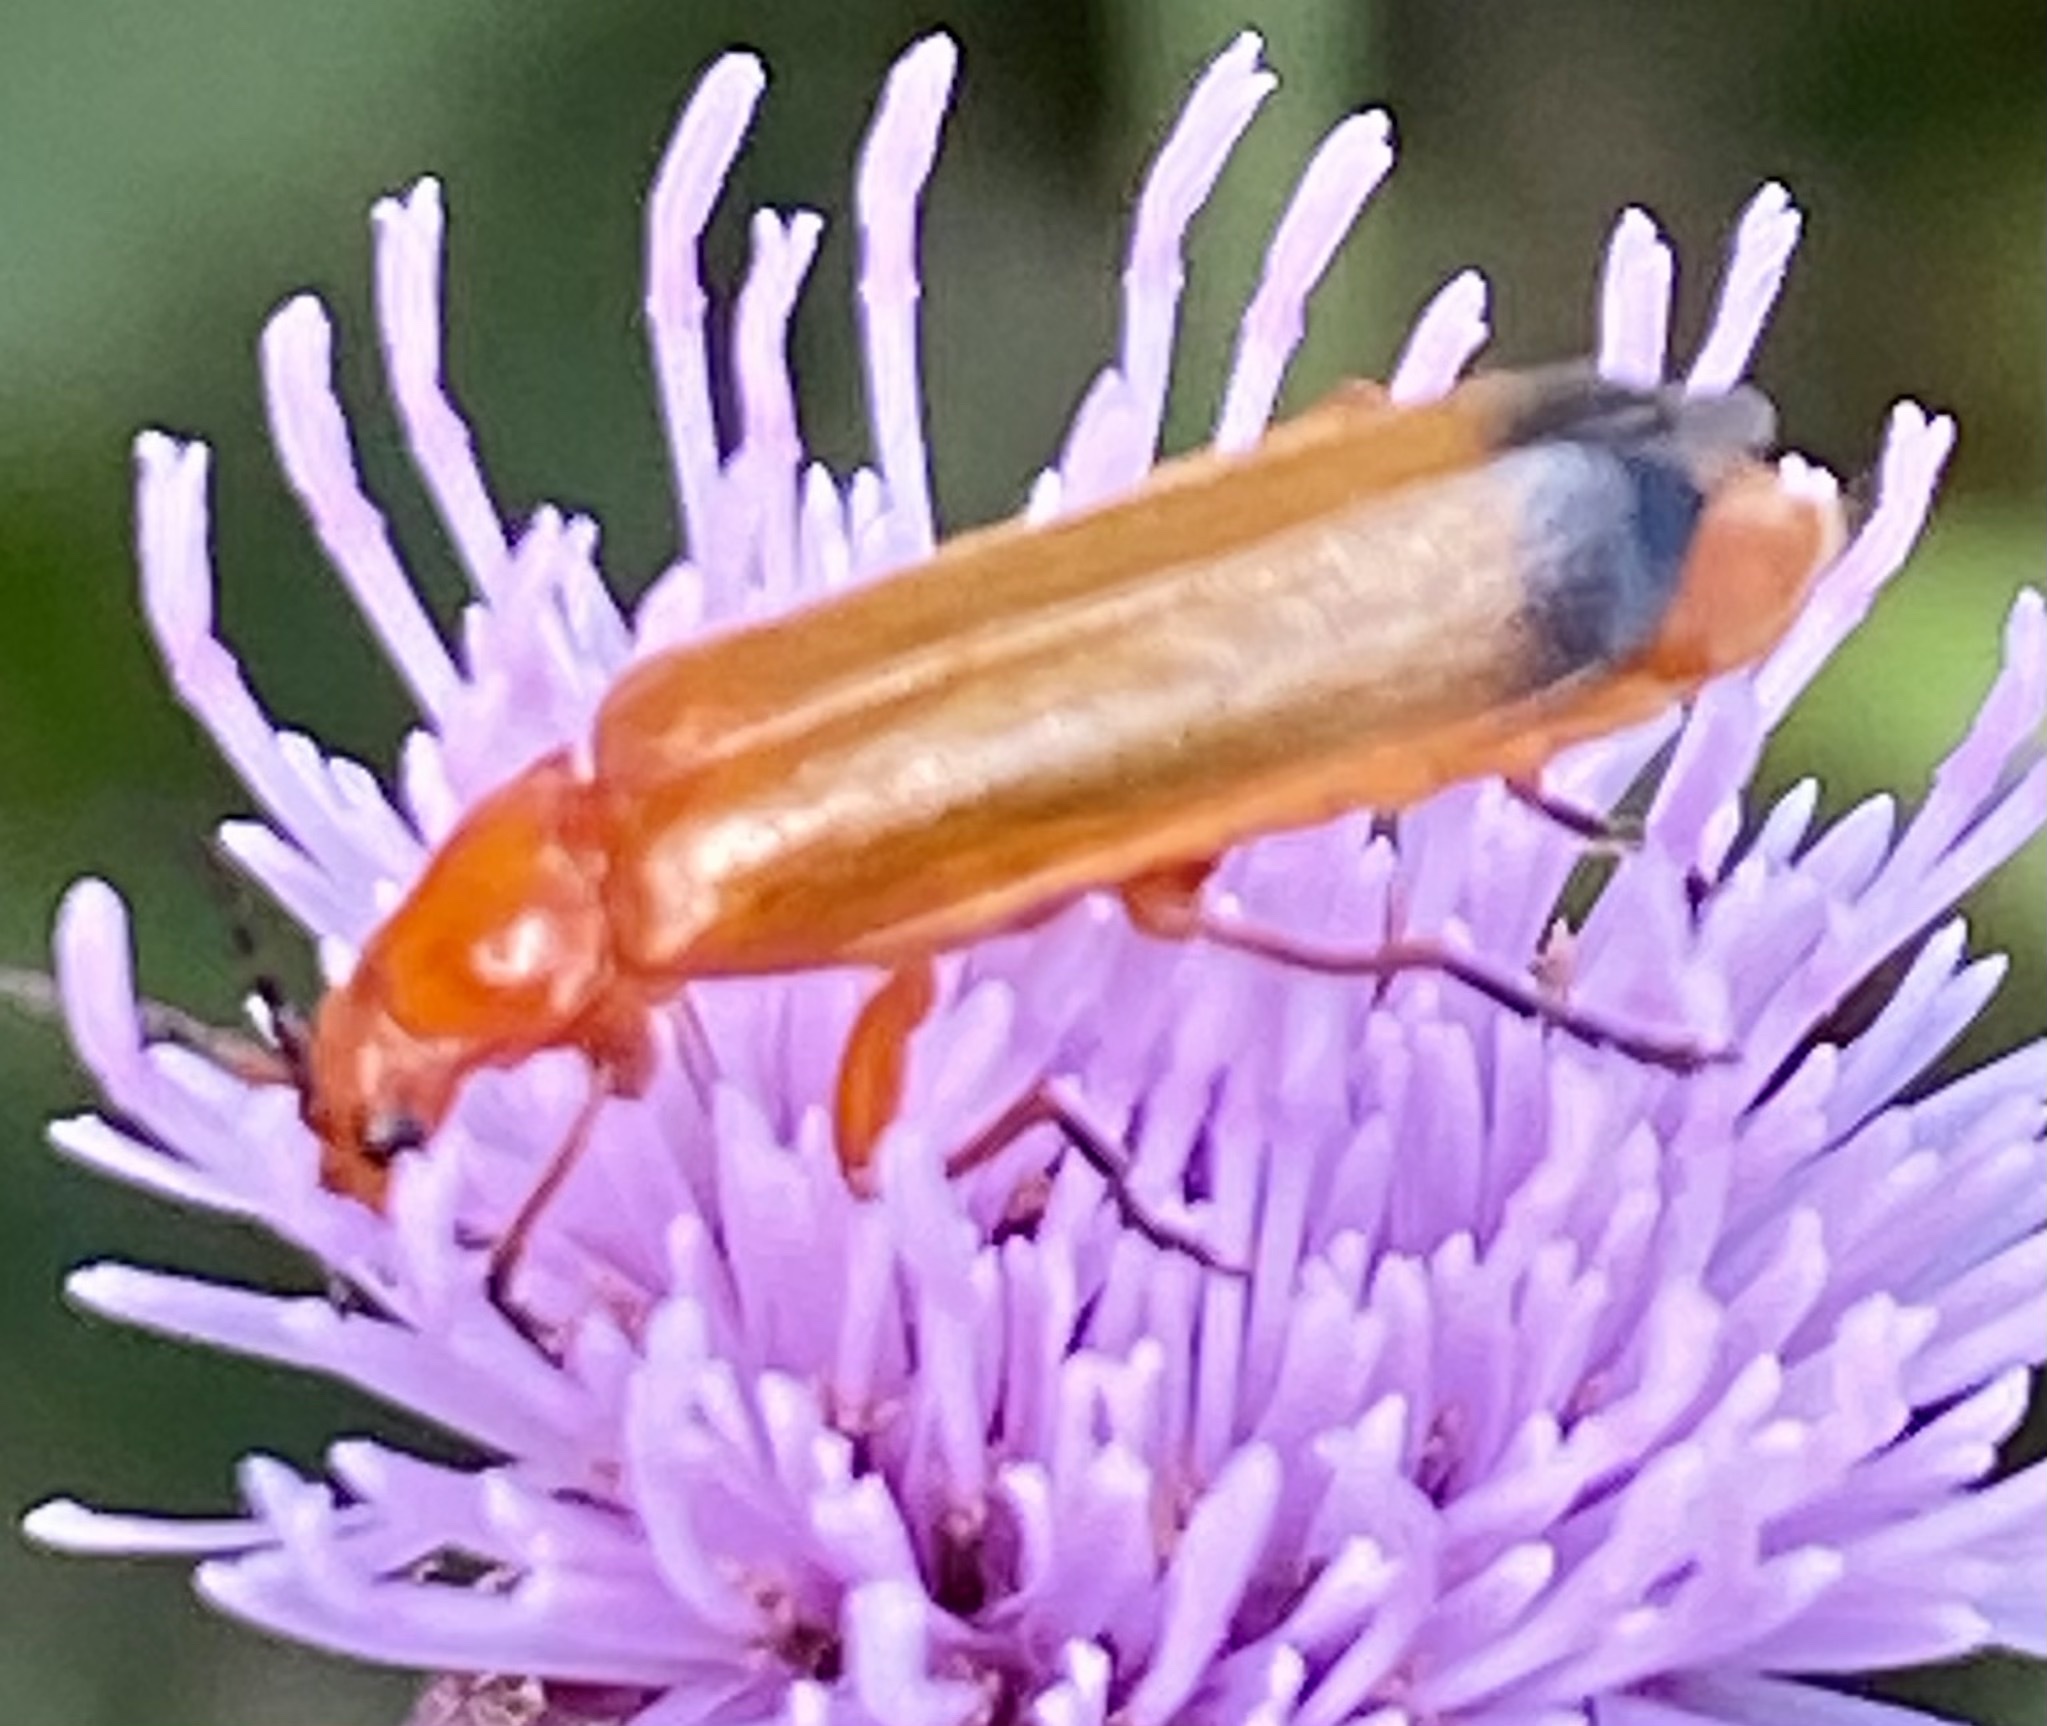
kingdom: Animalia
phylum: Arthropoda
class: Insecta
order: Coleoptera
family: Cantharidae
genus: Rhagonycha
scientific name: Rhagonycha fulva
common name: Common red soldier beetle
